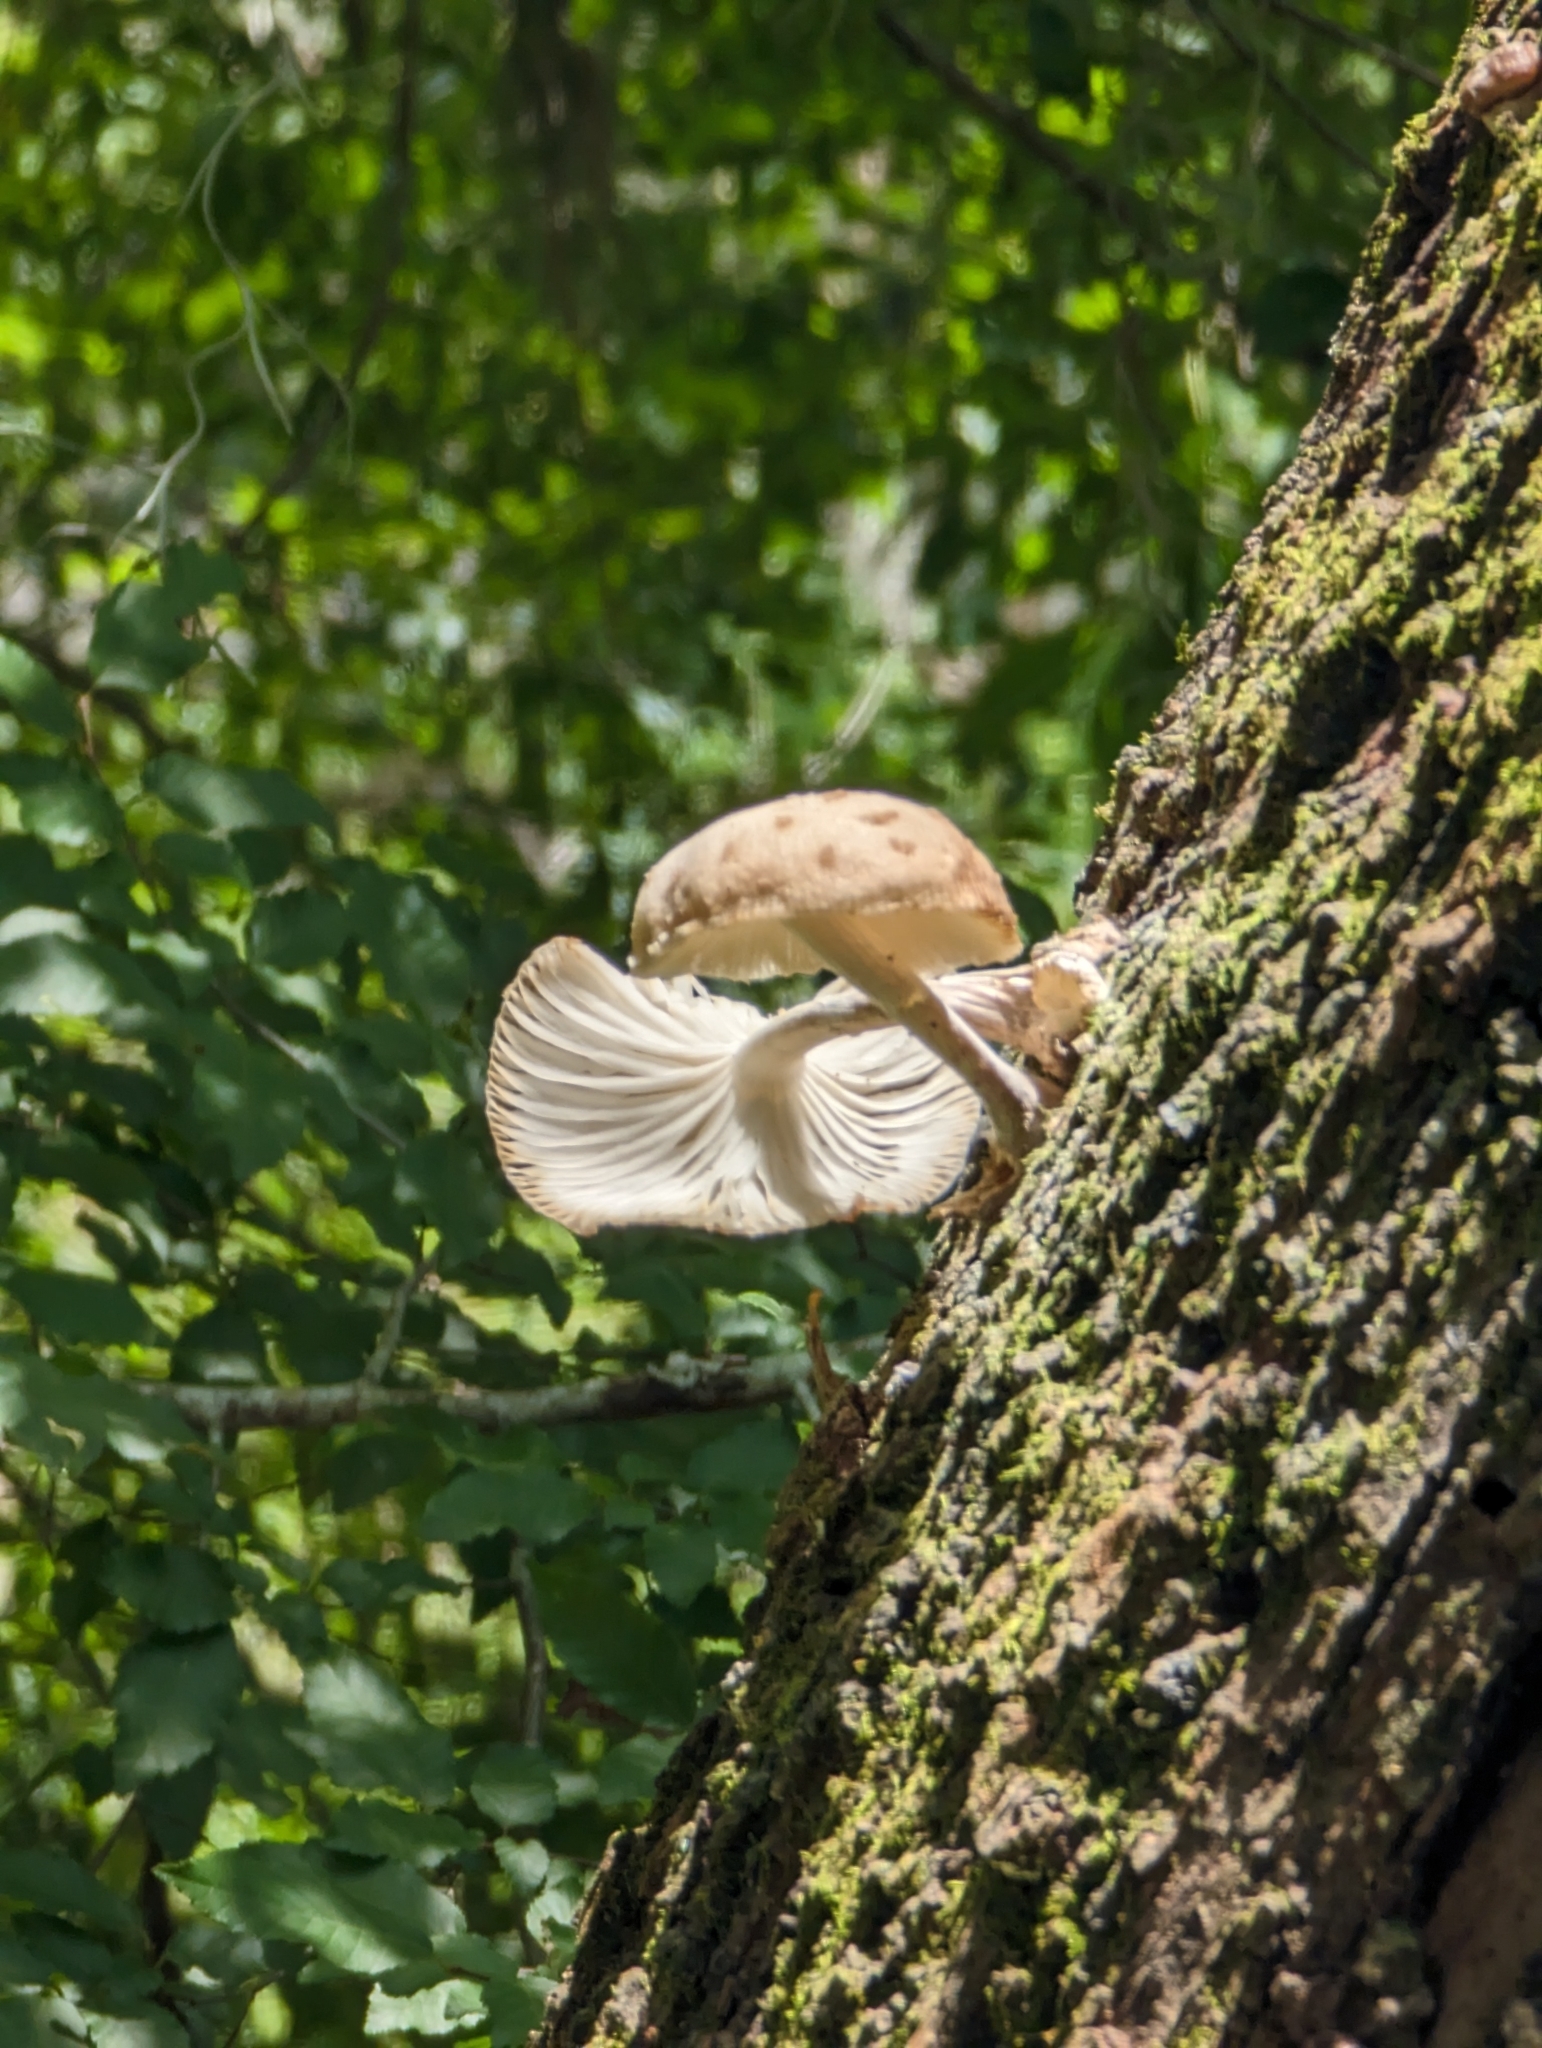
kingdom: Fungi
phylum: Basidiomycota
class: Agaricomycetes
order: Agaricales
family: Physalacriaceae
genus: Oudemansiella
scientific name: Oudemansiella canarii
